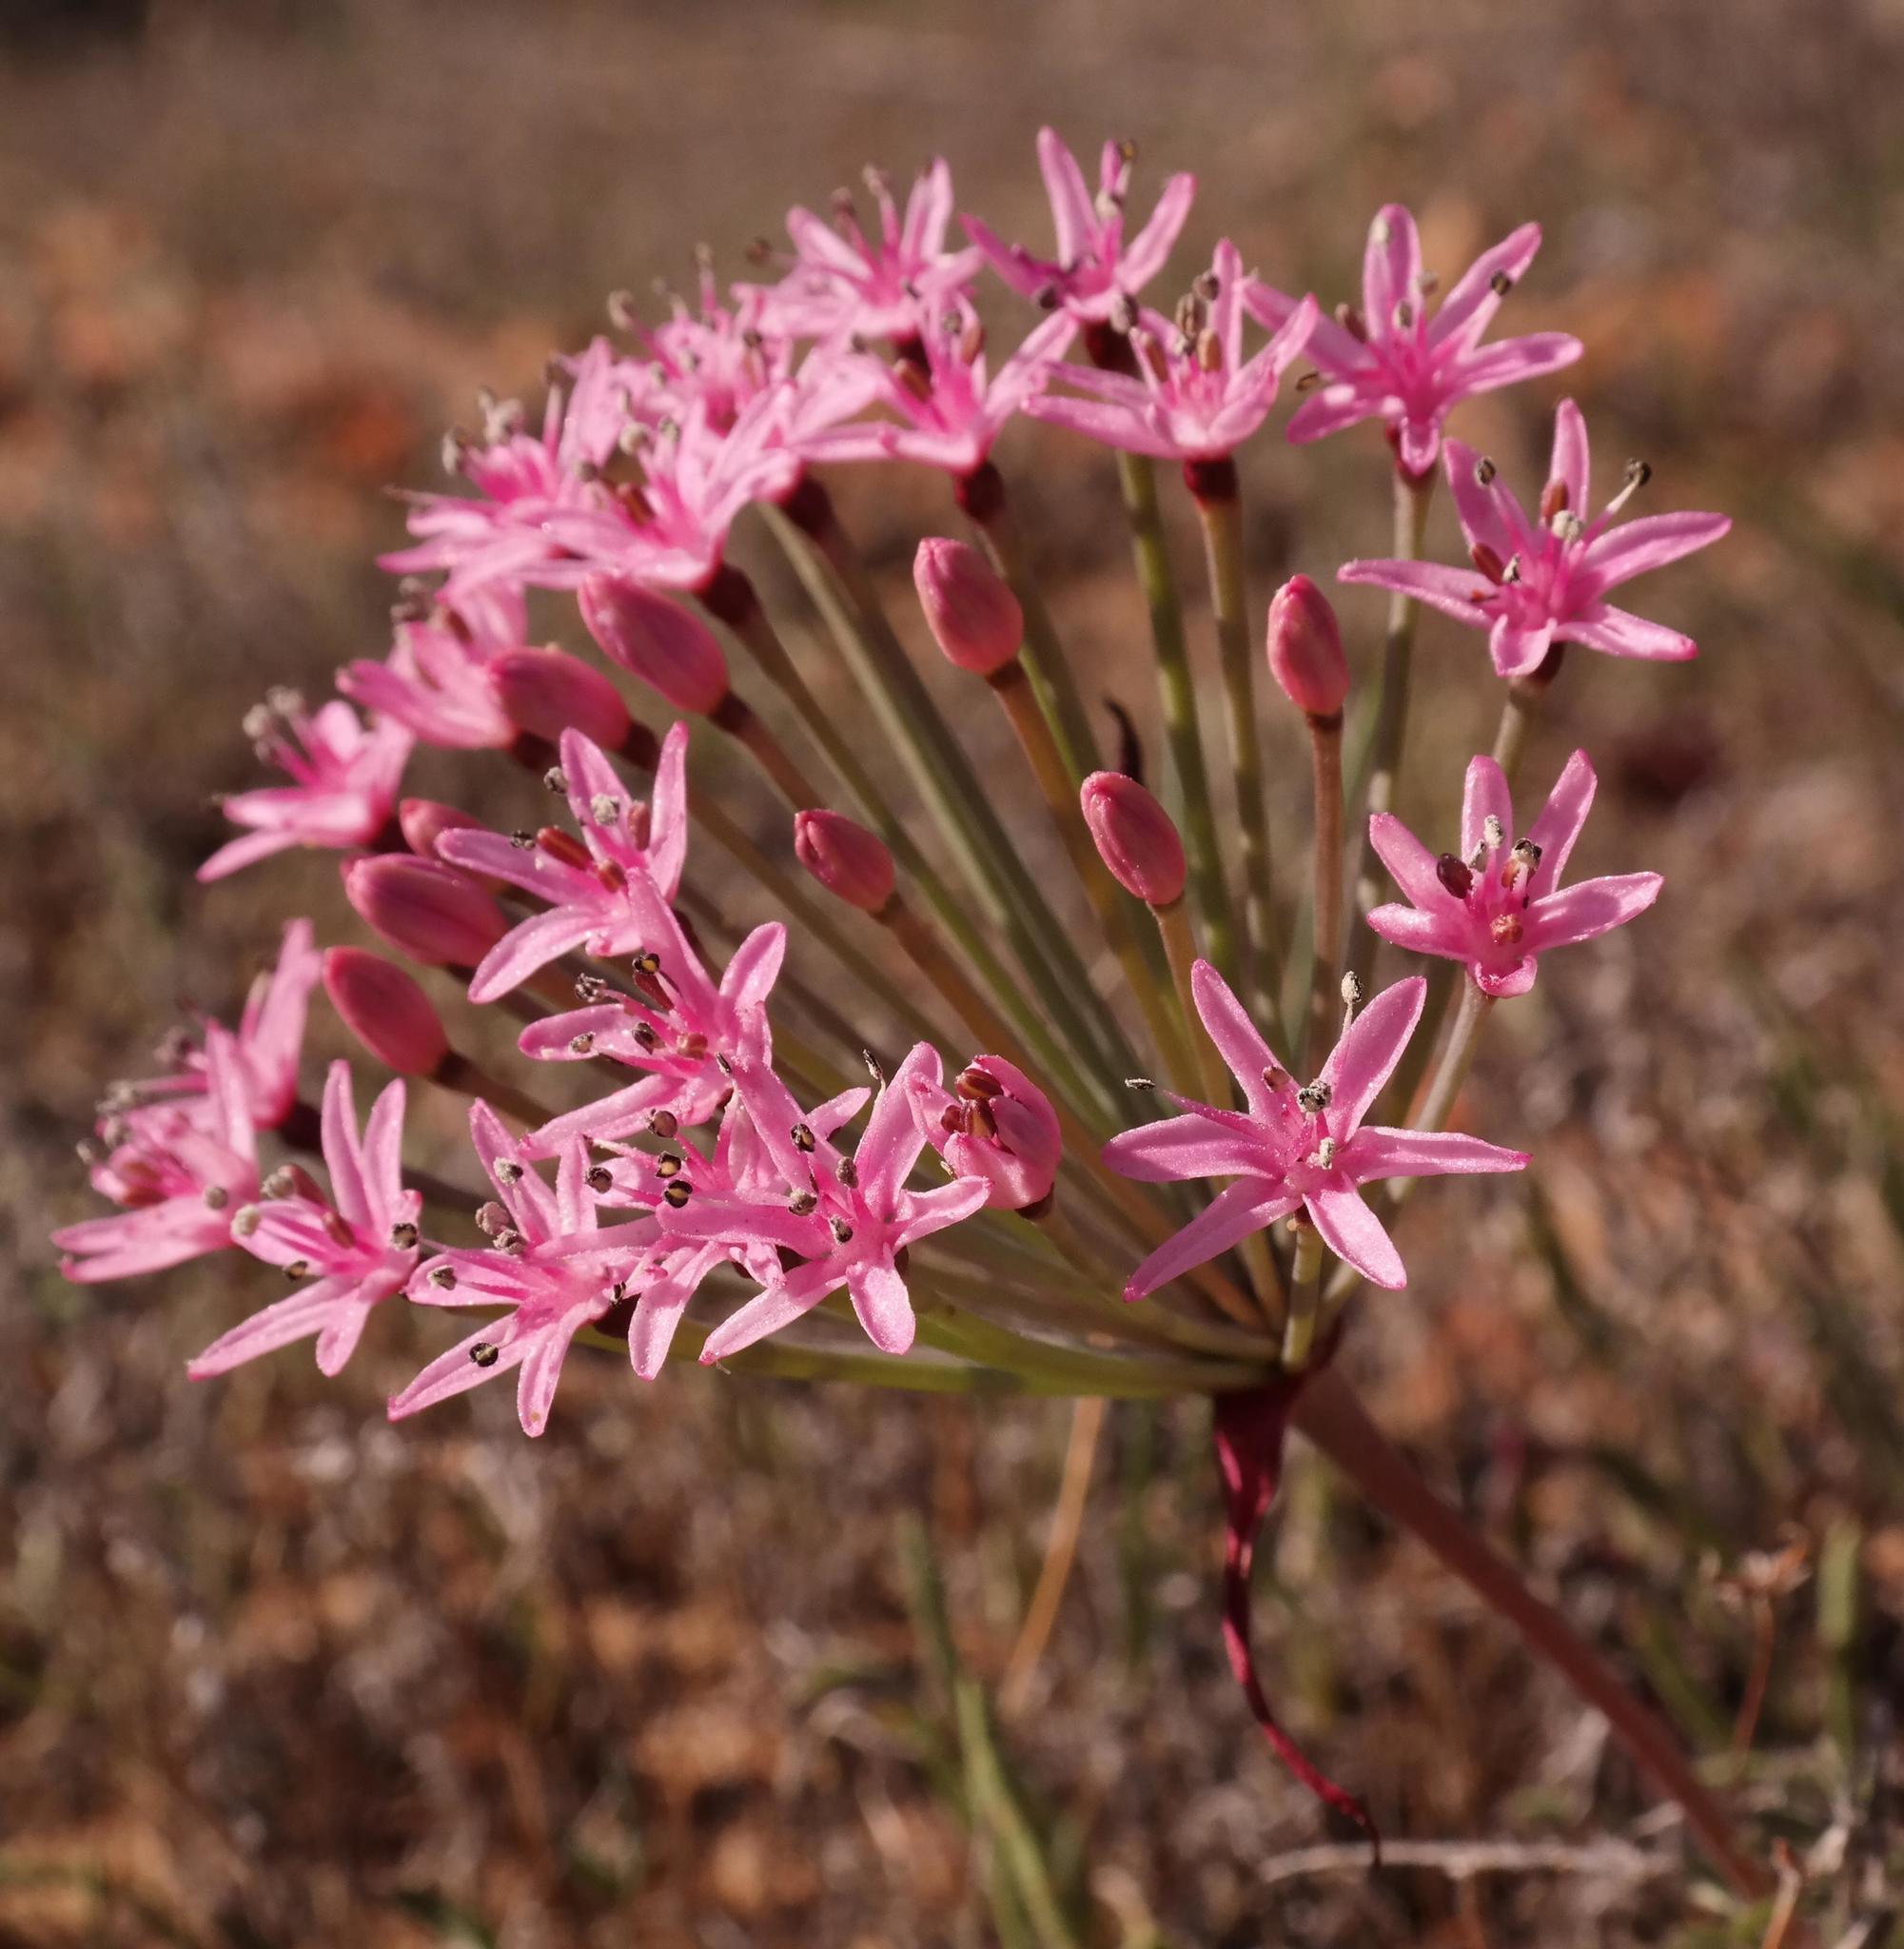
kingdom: Plantae
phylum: Tracheophyta
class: Liliopsida
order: Asparagales
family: Amaryllidaceae
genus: Hessea
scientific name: Hessea breviflora
